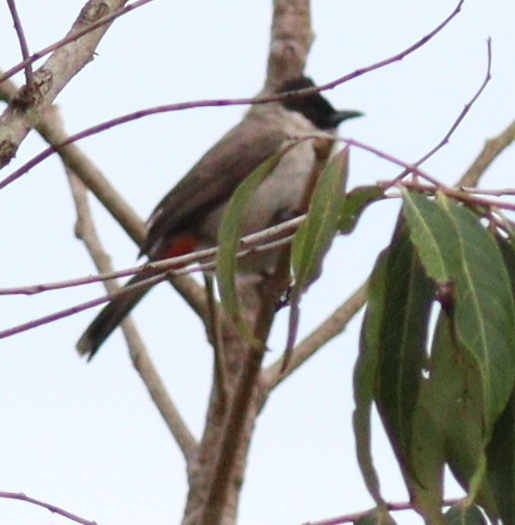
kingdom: Animalia
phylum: Chordata
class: Aves
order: Passeriformes
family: Pycnonotidae
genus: Pycnonotus
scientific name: Pycnonotus aurigaster
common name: Sooty-headed bulbul
